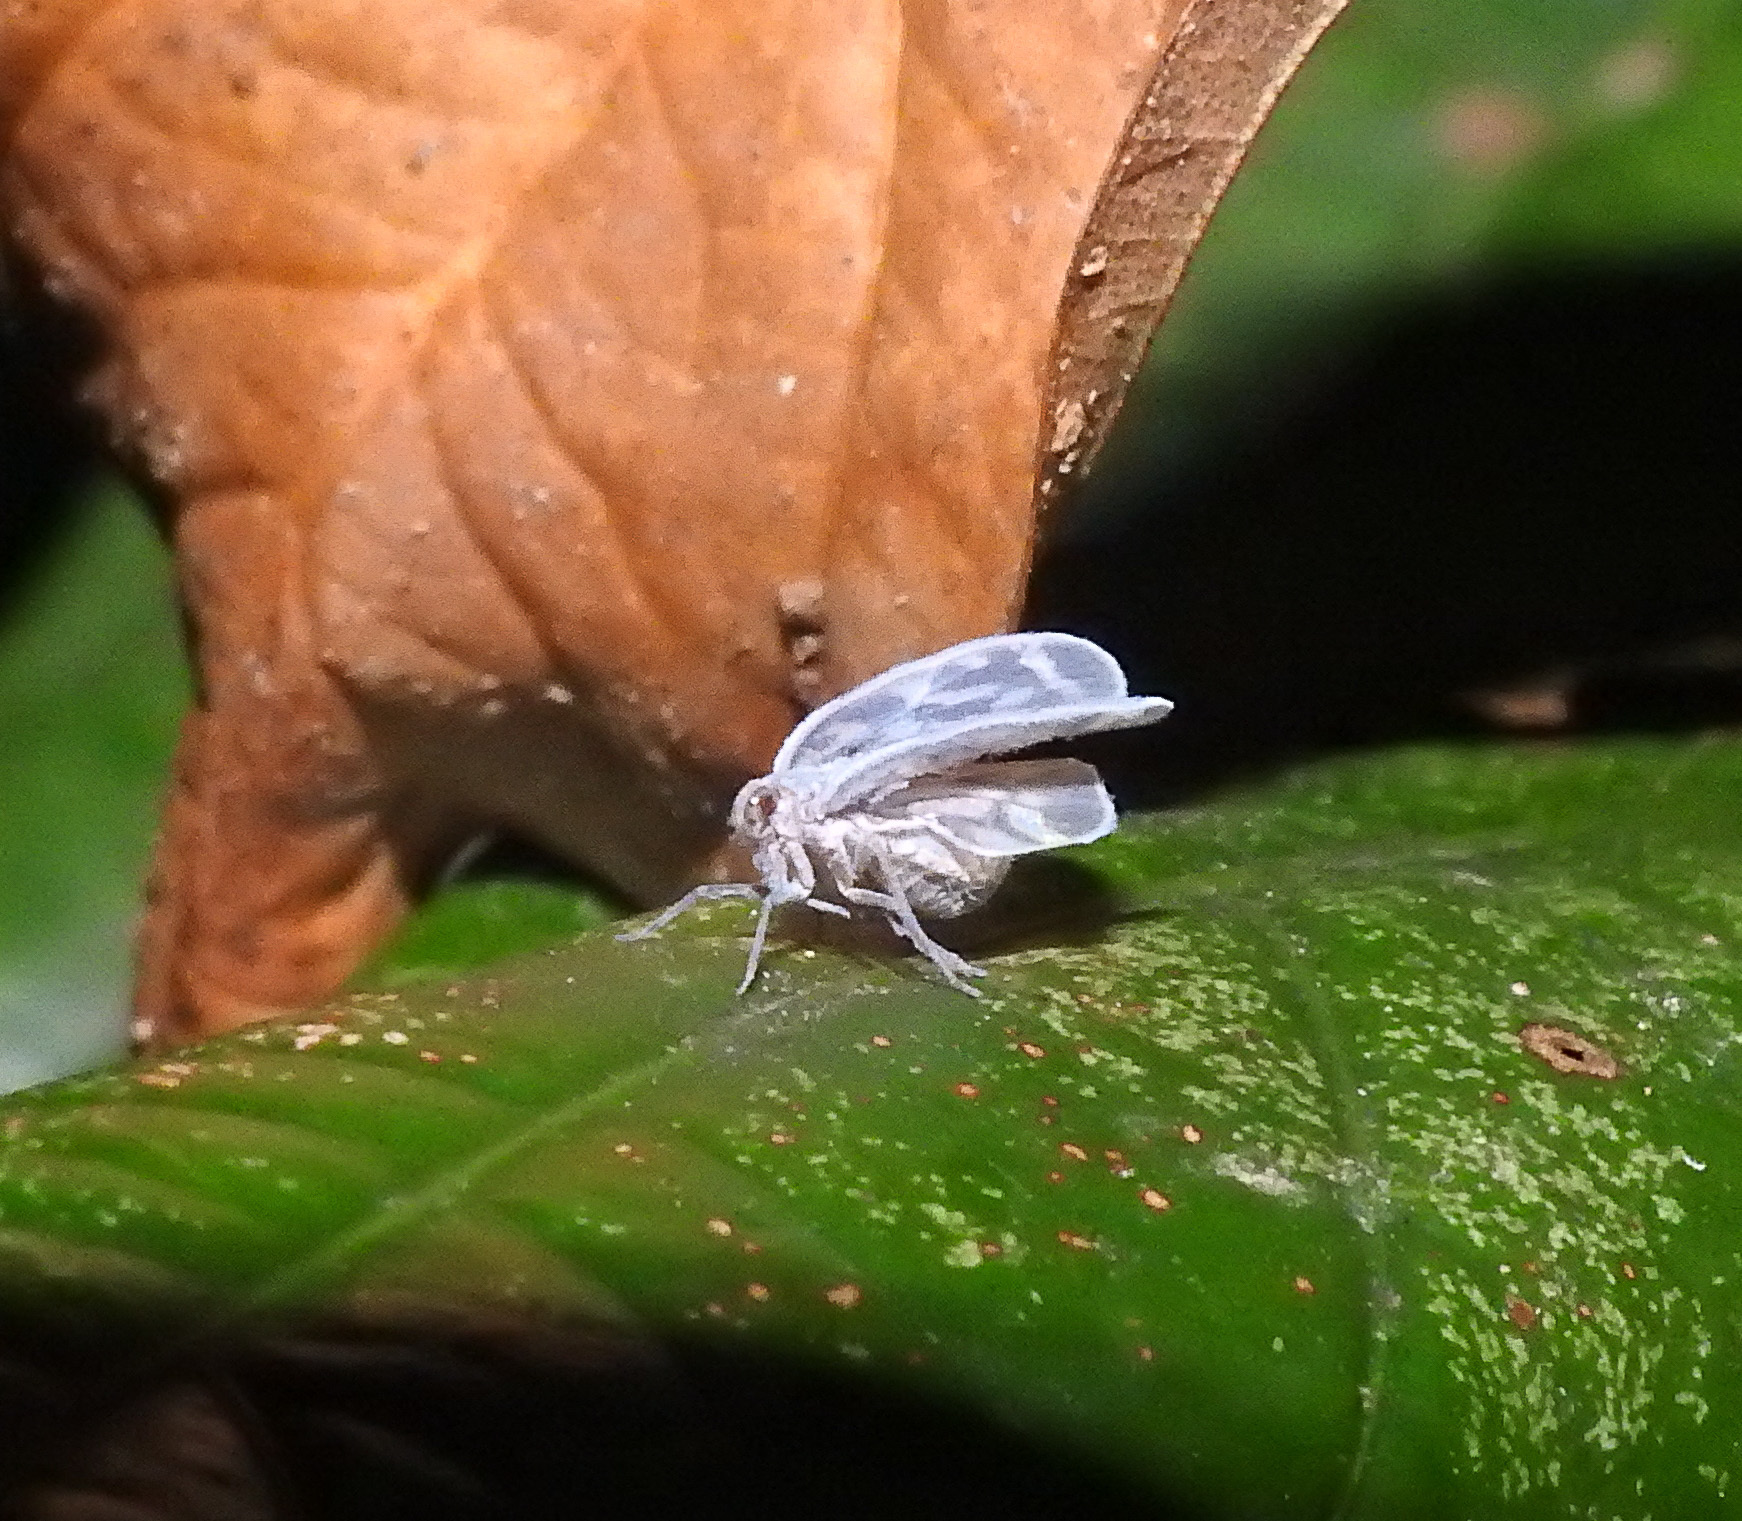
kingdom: Animalia
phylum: Arthropoda
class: Insecta
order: Hemiptera
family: Cixiidae
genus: Borysthenes
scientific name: Borysthenes suknanicus
